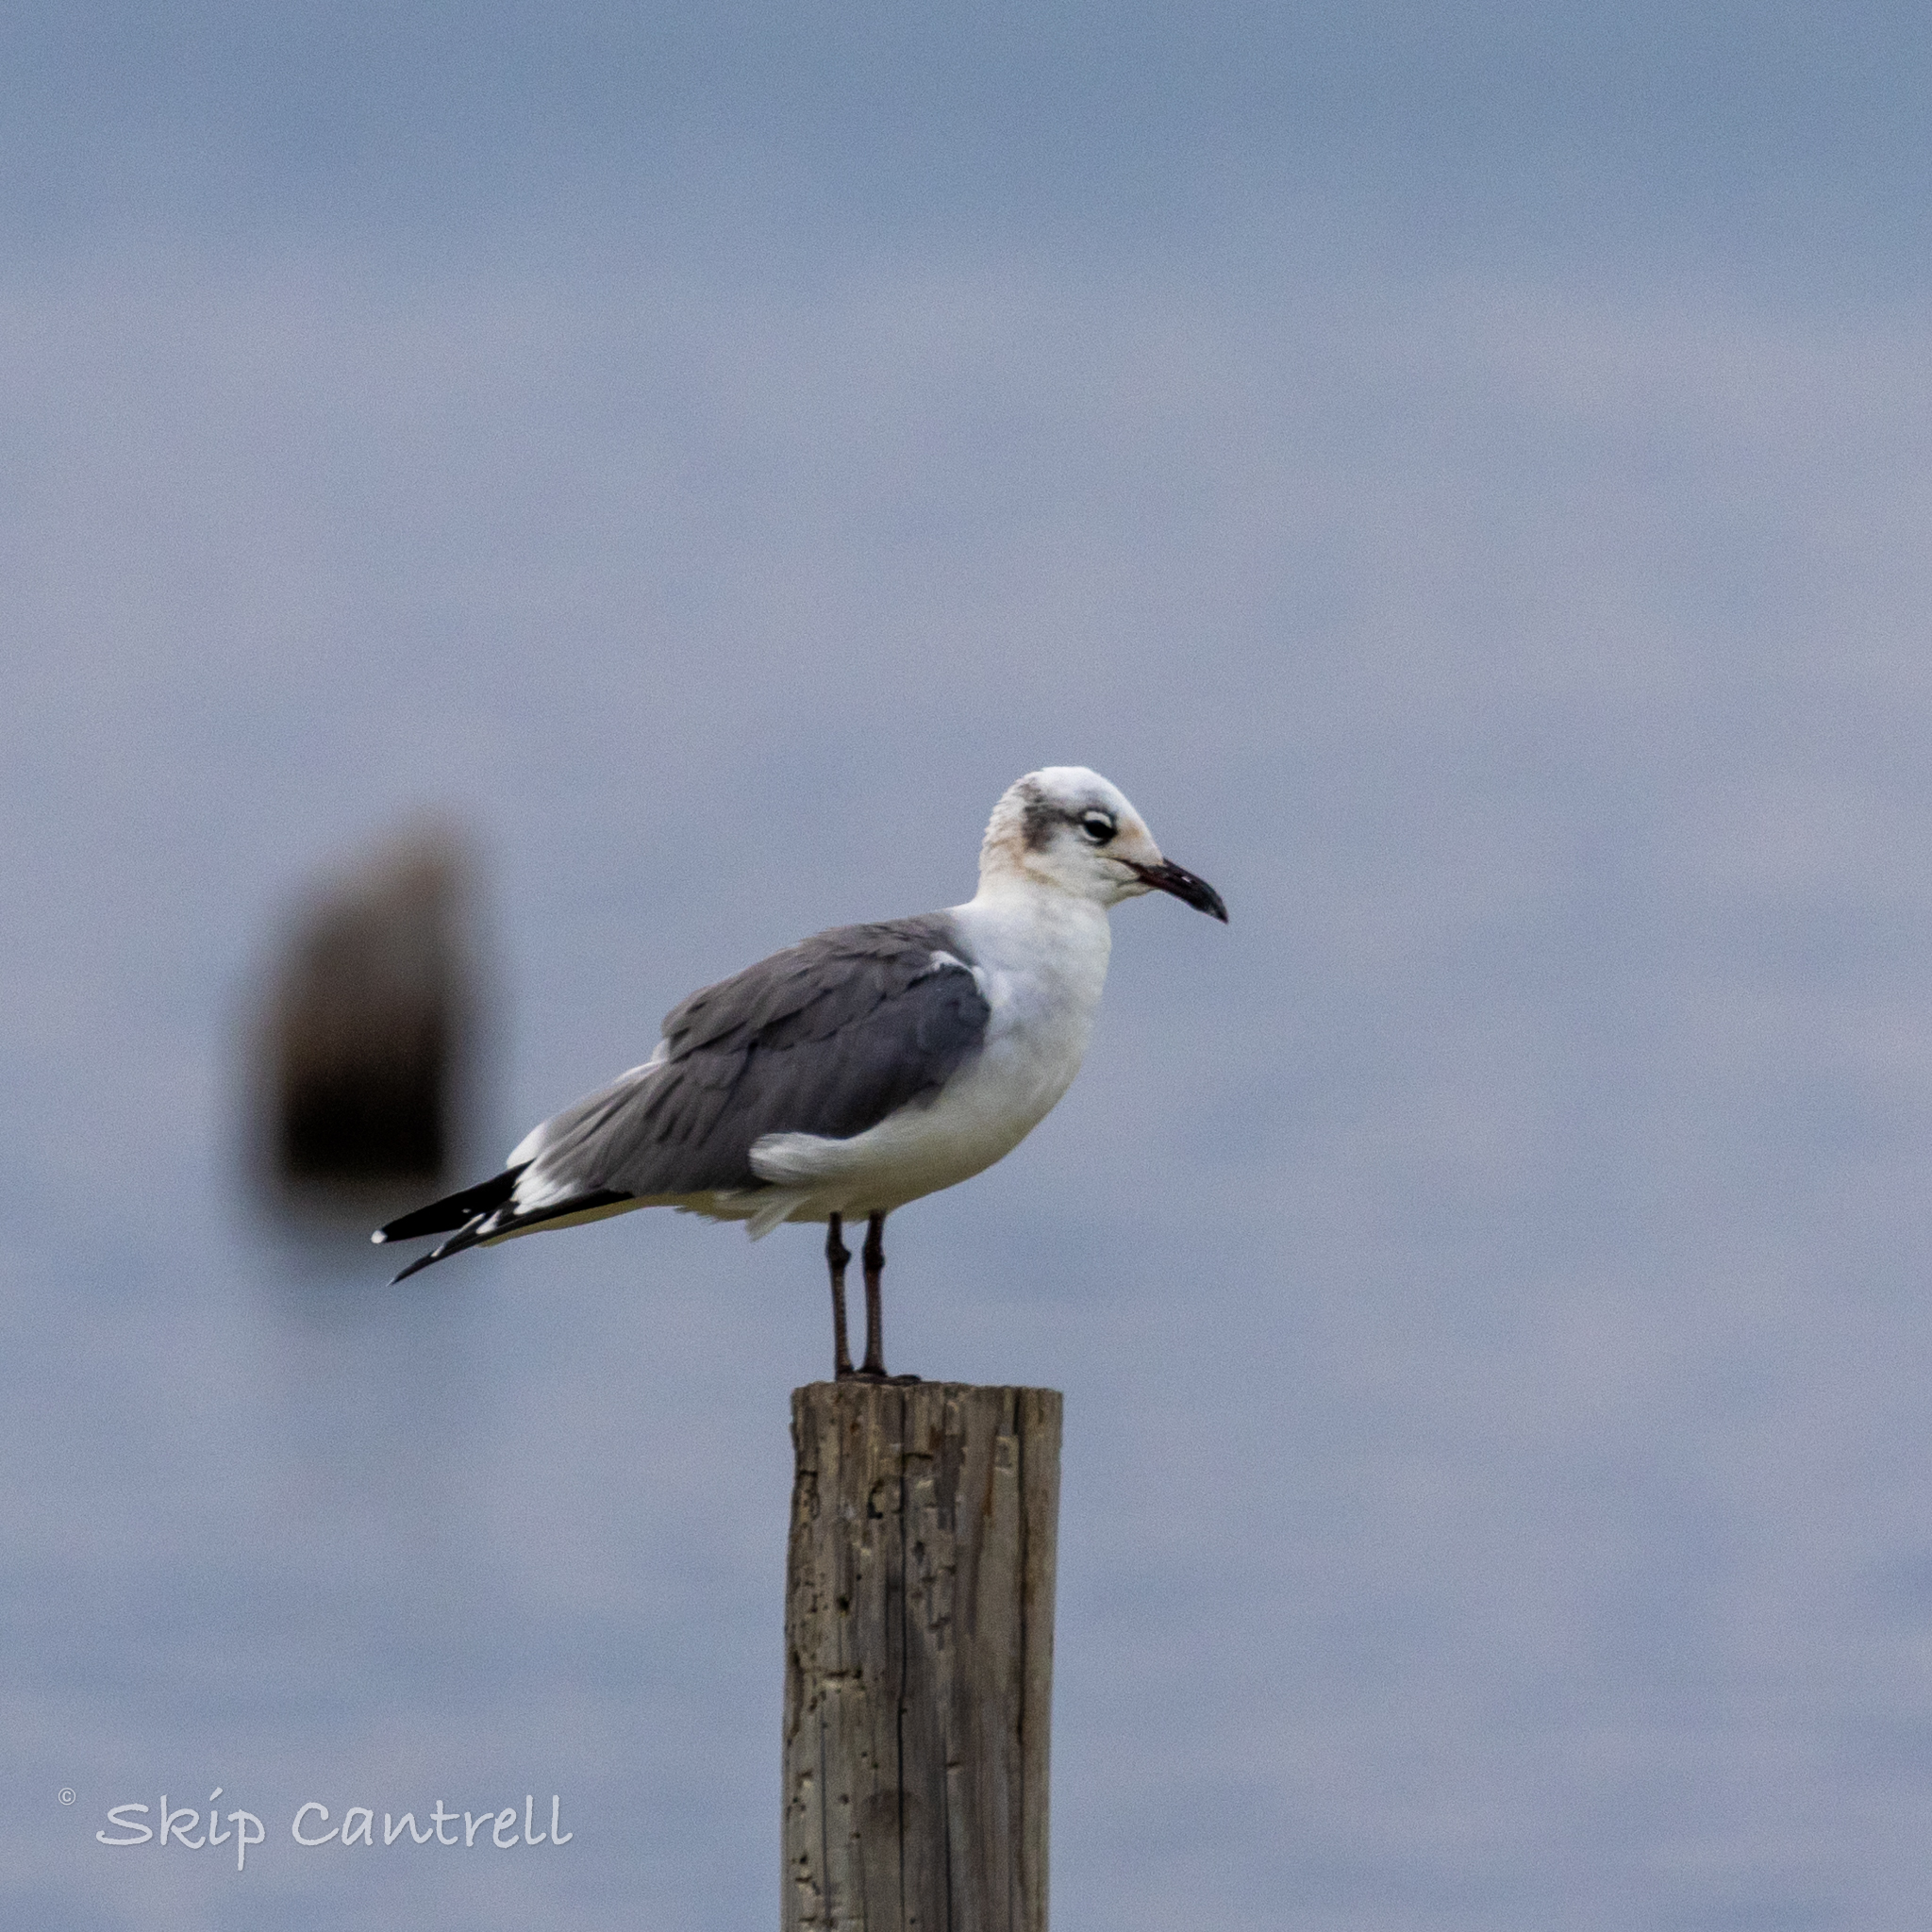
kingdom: Animalia
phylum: Chordata
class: Aves
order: Charadriiformes
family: Laridae
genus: Leucophaeus
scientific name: Leucophaeus atricilla
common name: Laughing gull
